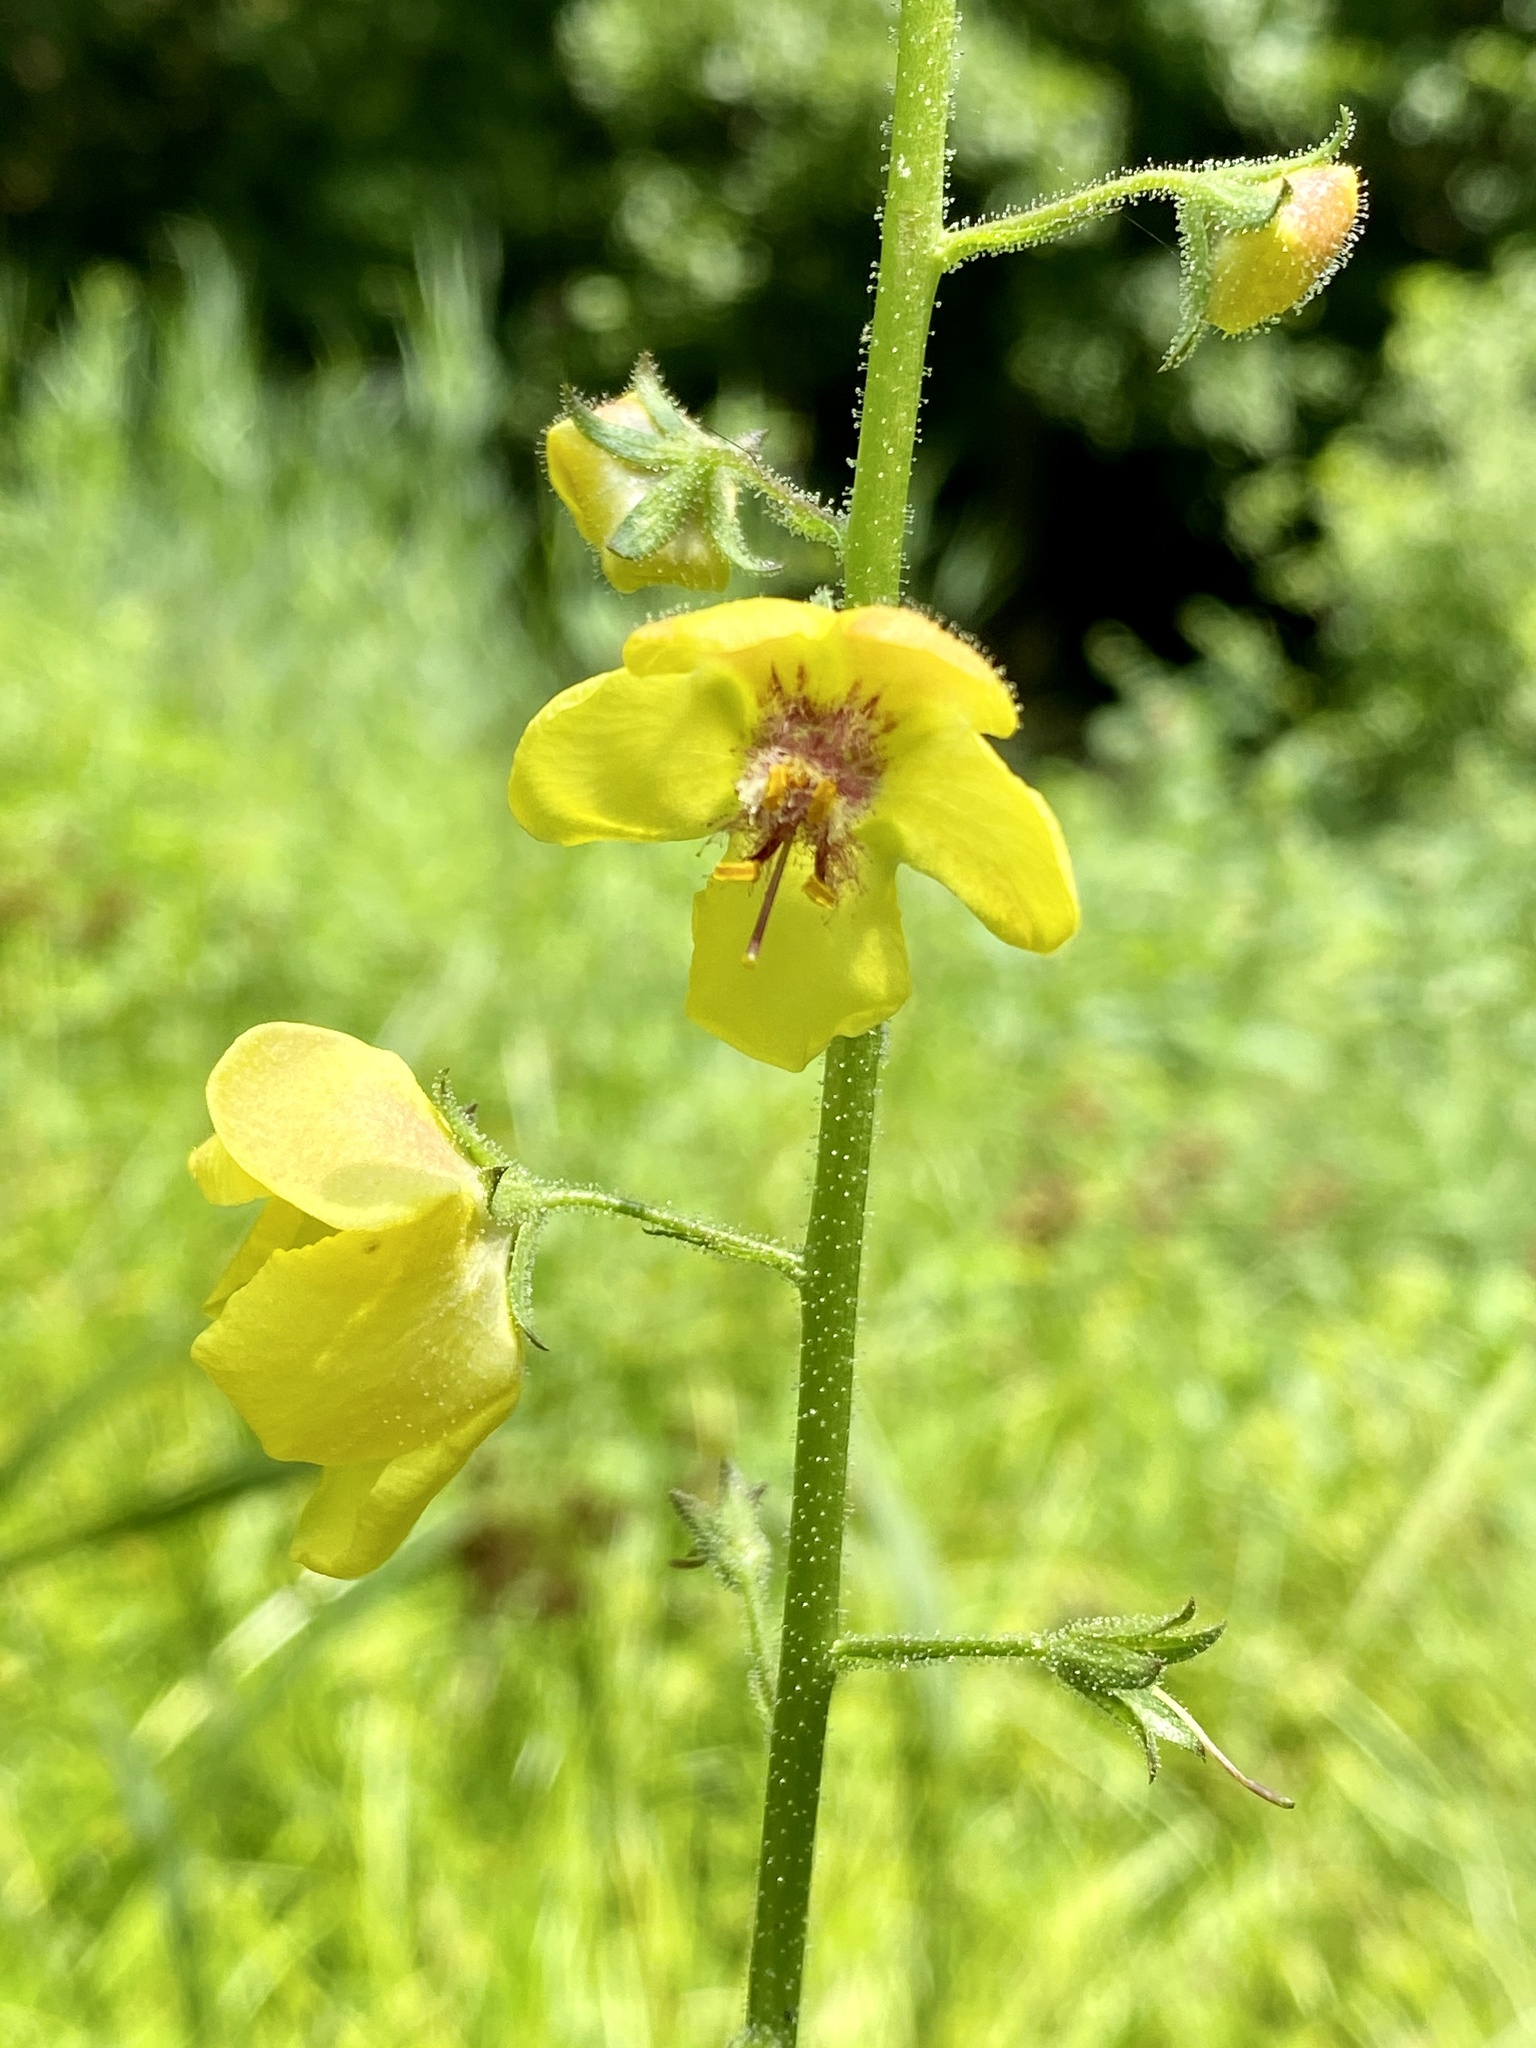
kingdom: Plantae
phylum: Tracheophyta
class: Magnoliopsida
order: Lamiales
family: Scrophulariaceae
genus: Verbascum
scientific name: Verbascum blattaria
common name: Moth mullein
